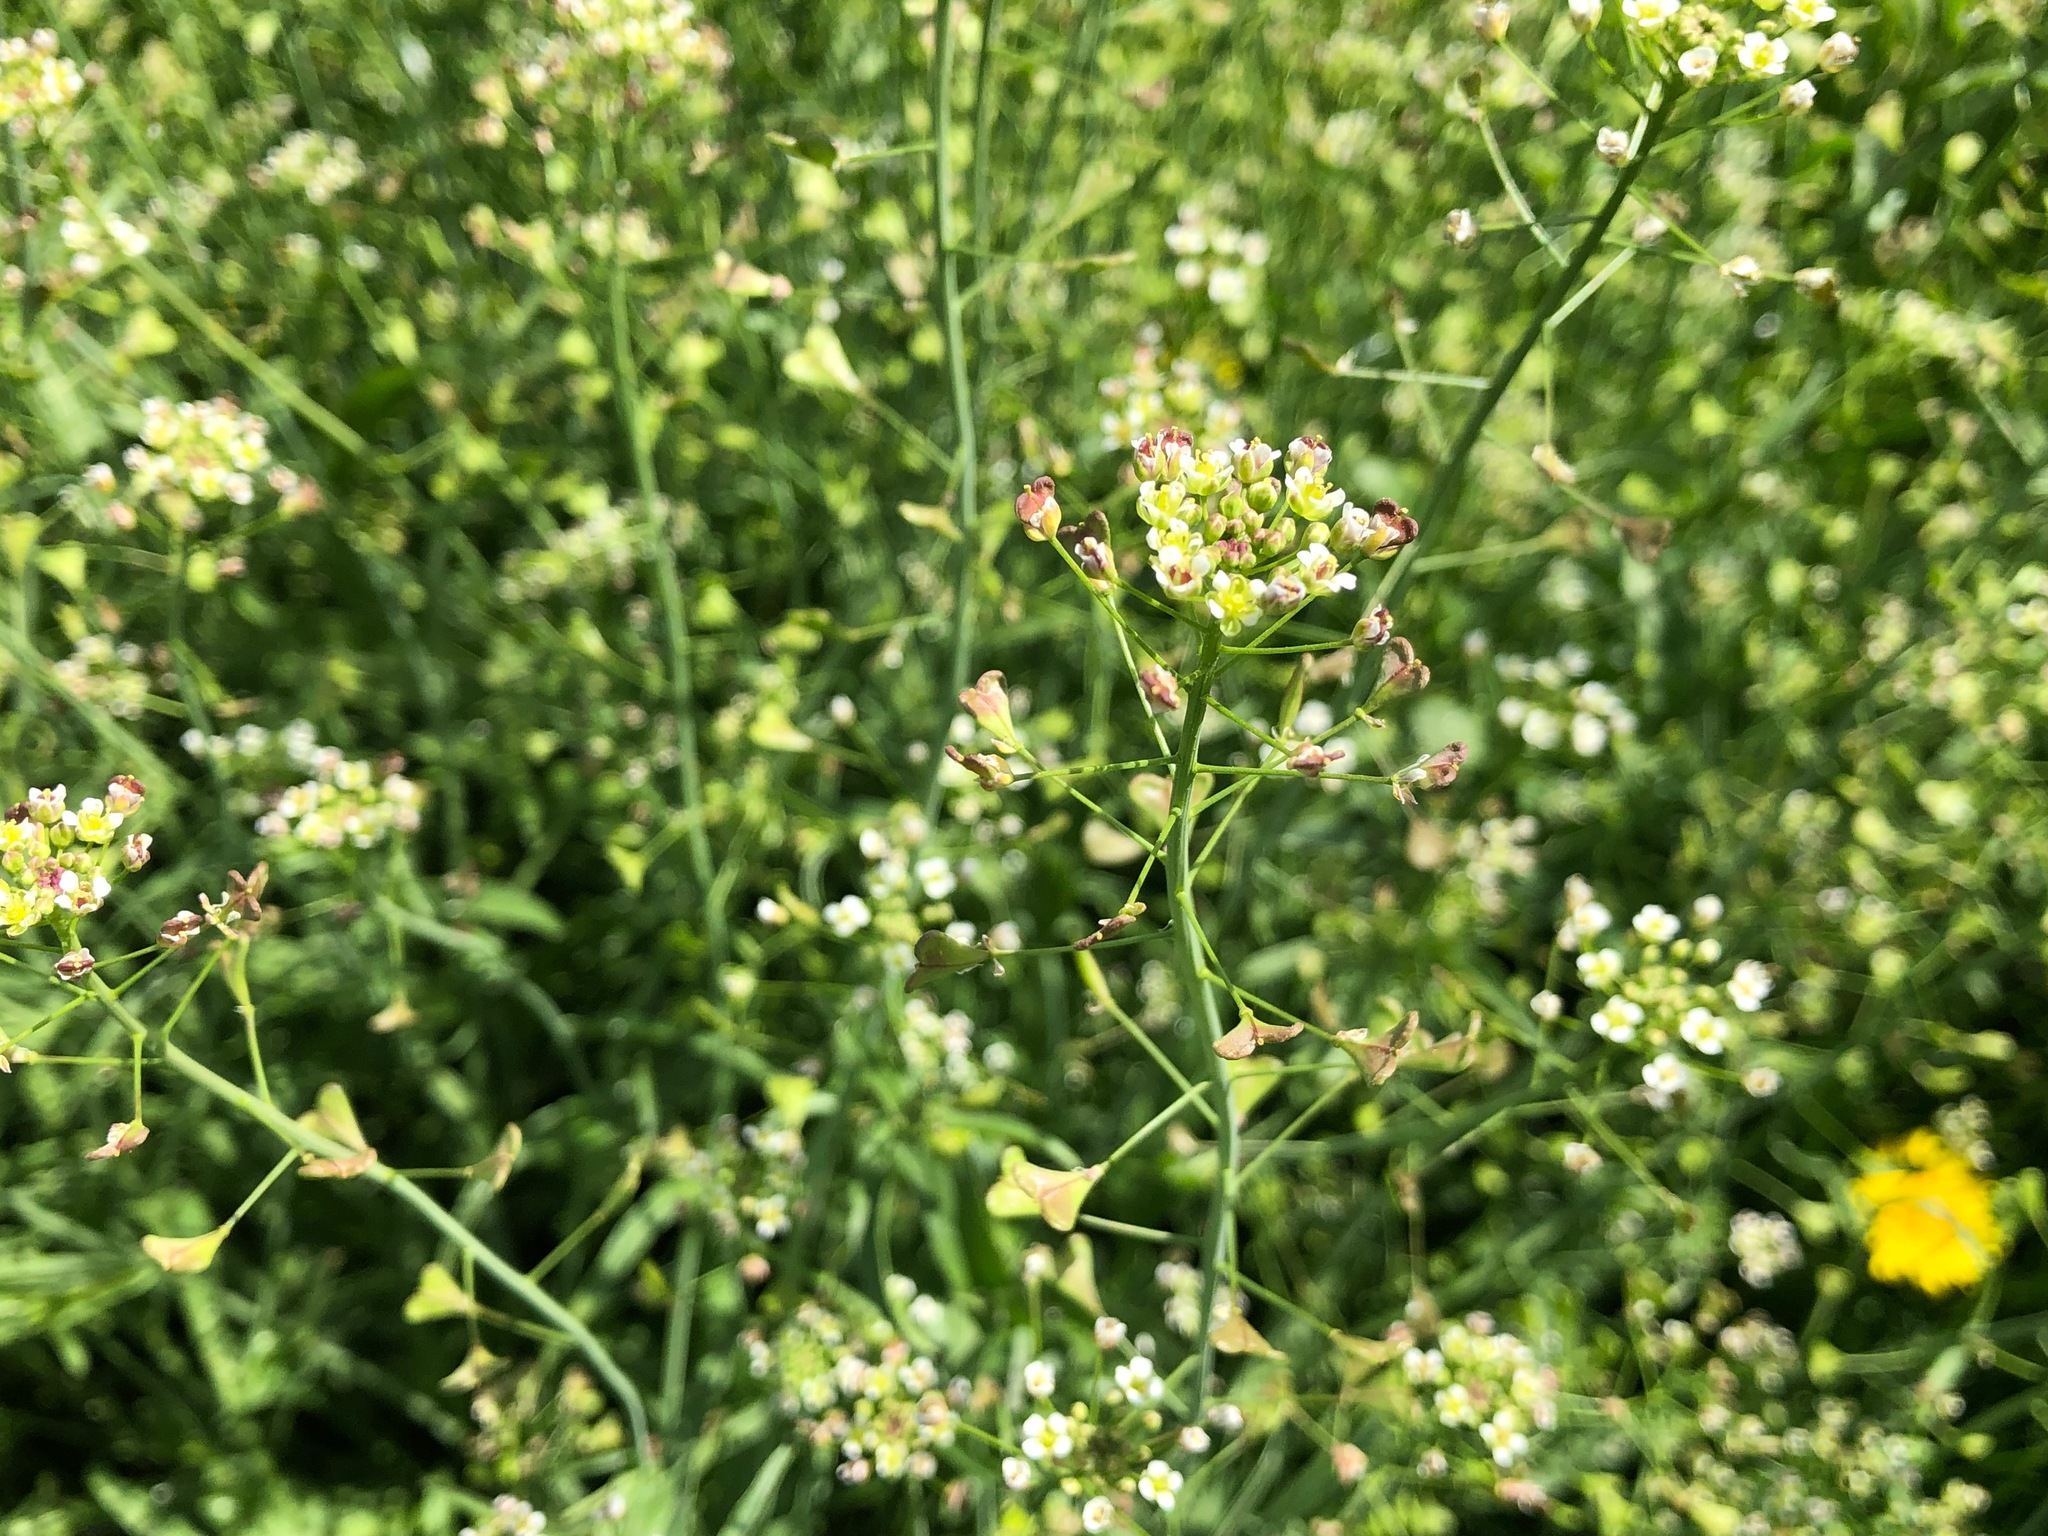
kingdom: Plantae
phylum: Tracheophyta
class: Magnoliopsida
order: Brassicales
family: Brassicaceae
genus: Capsella
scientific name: Capsella bursa-pastoris
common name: Shepherd's purse
